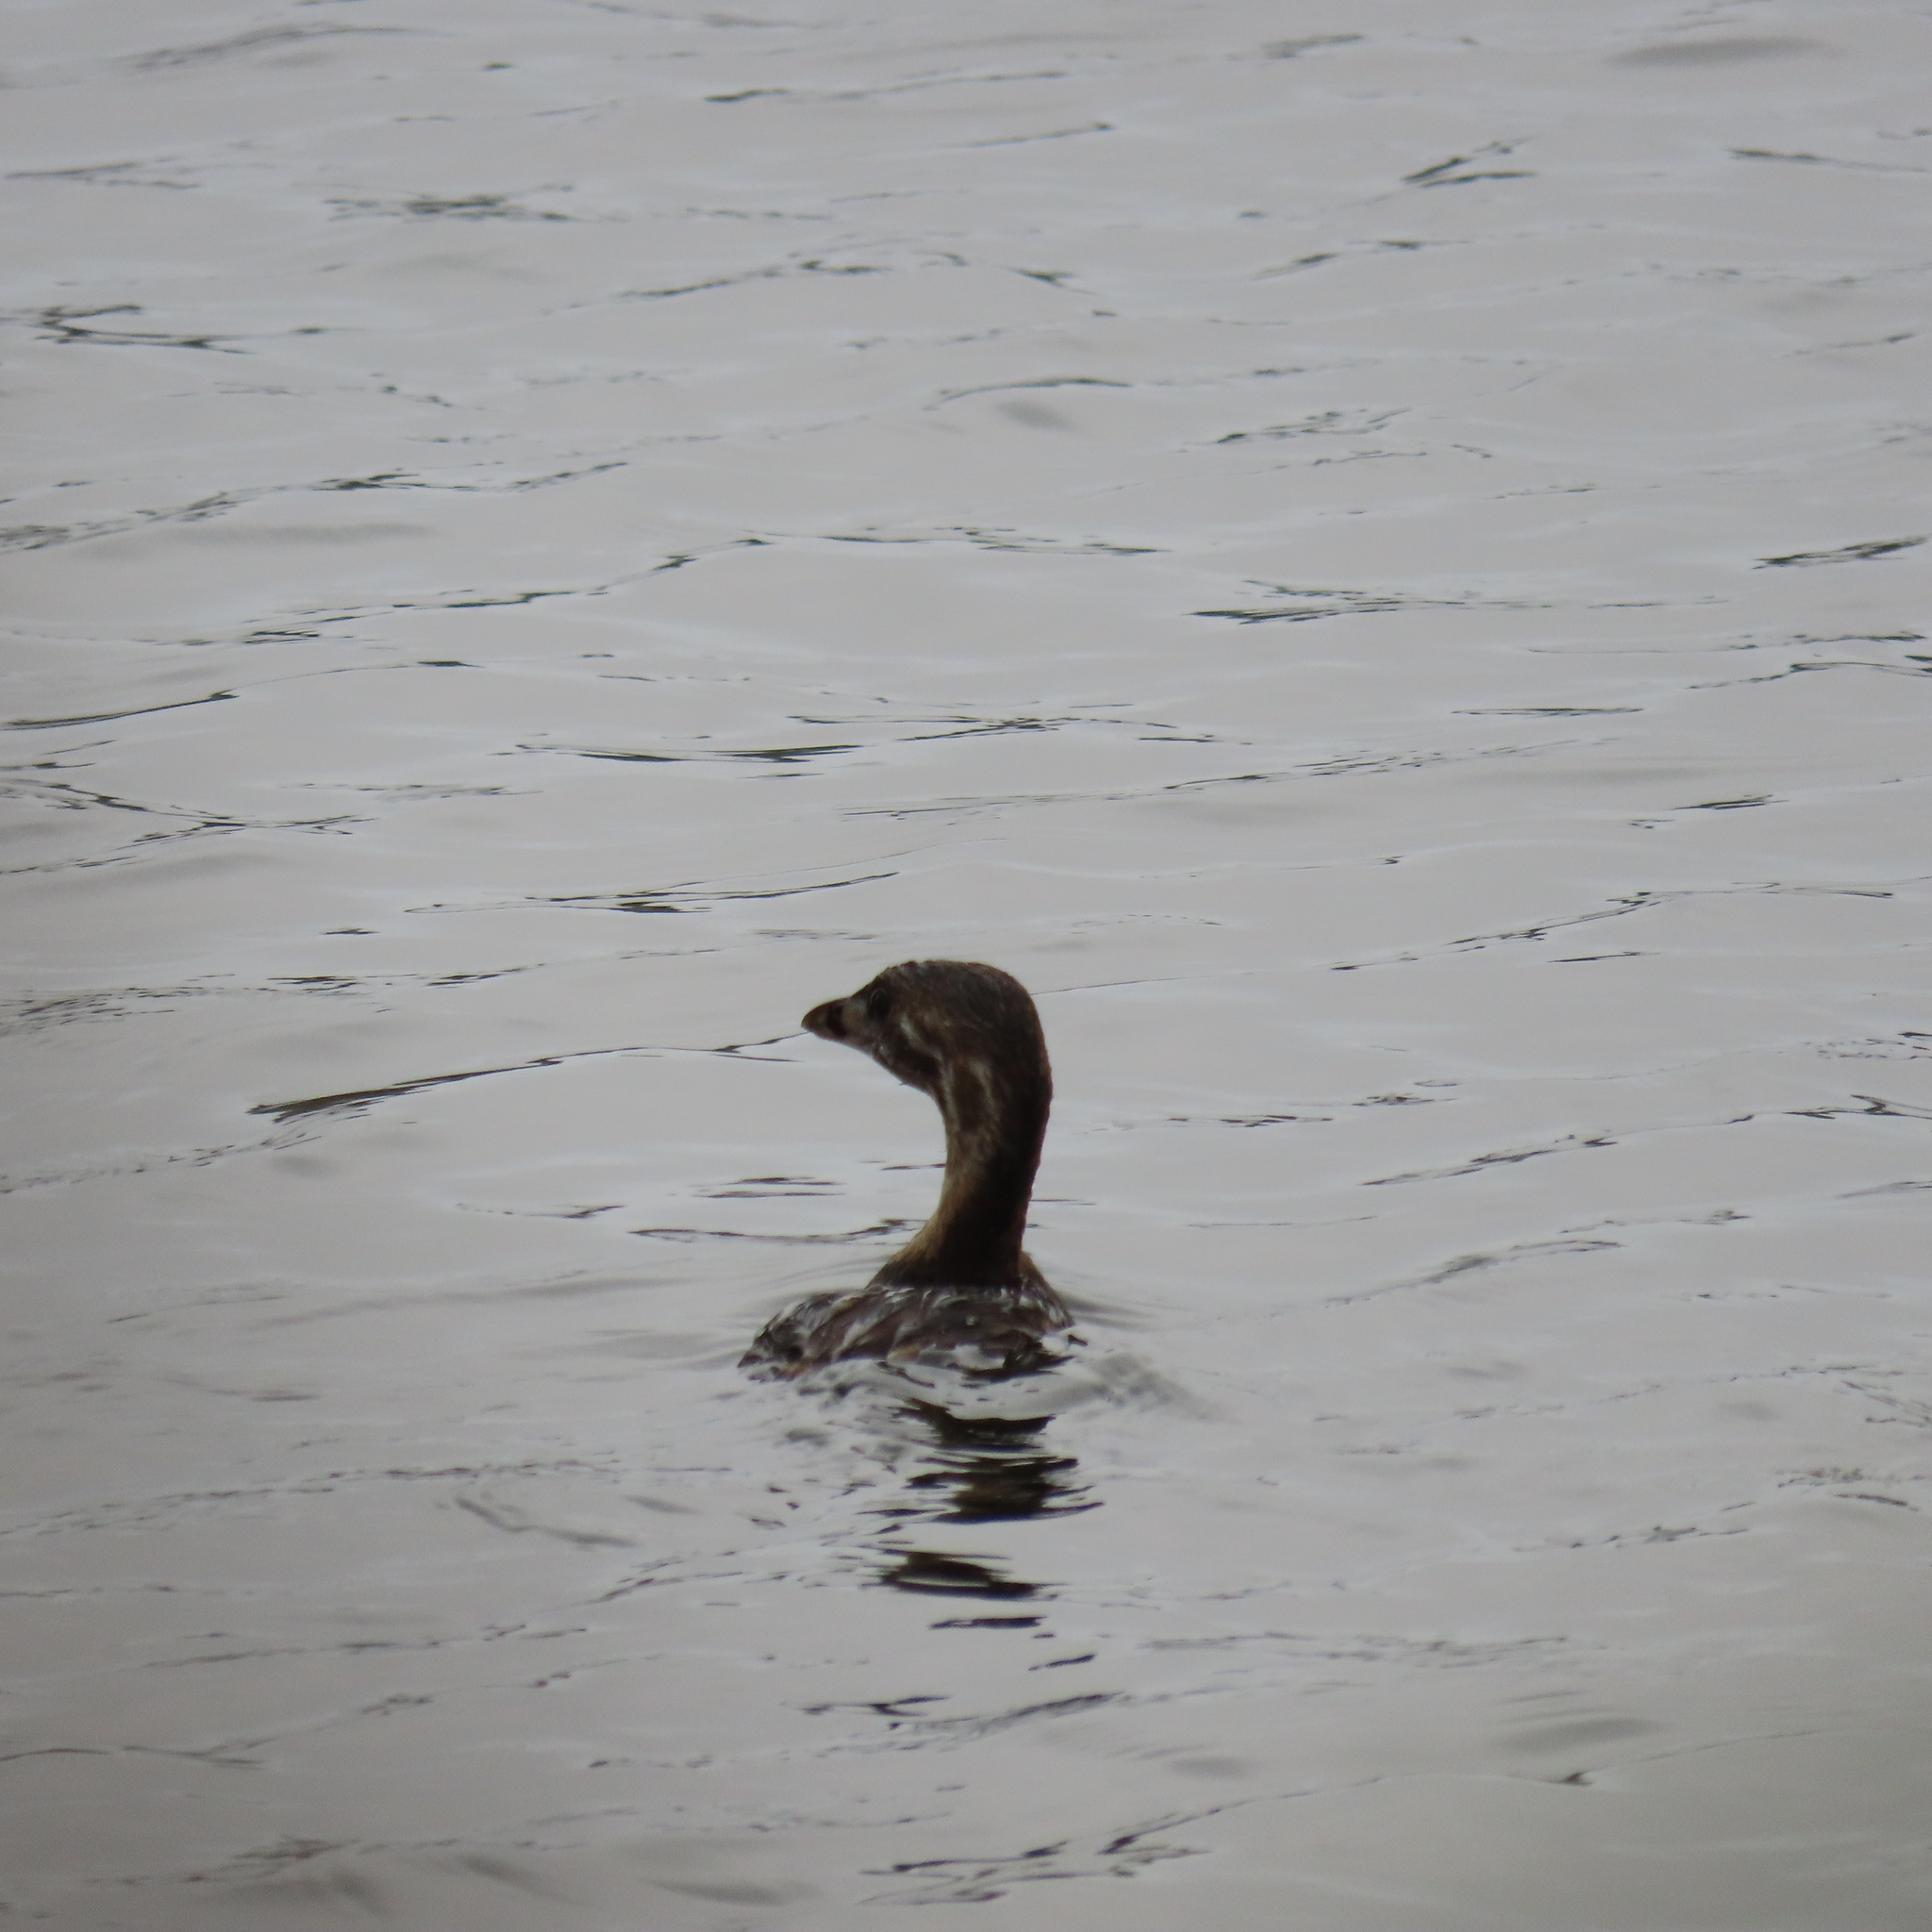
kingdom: Animalia
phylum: Chordata
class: Aves
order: Podicipediformes
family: Podicipedidae
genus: Podilymbus
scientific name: Podilymbus podiceps
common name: Pied-billed grebe
